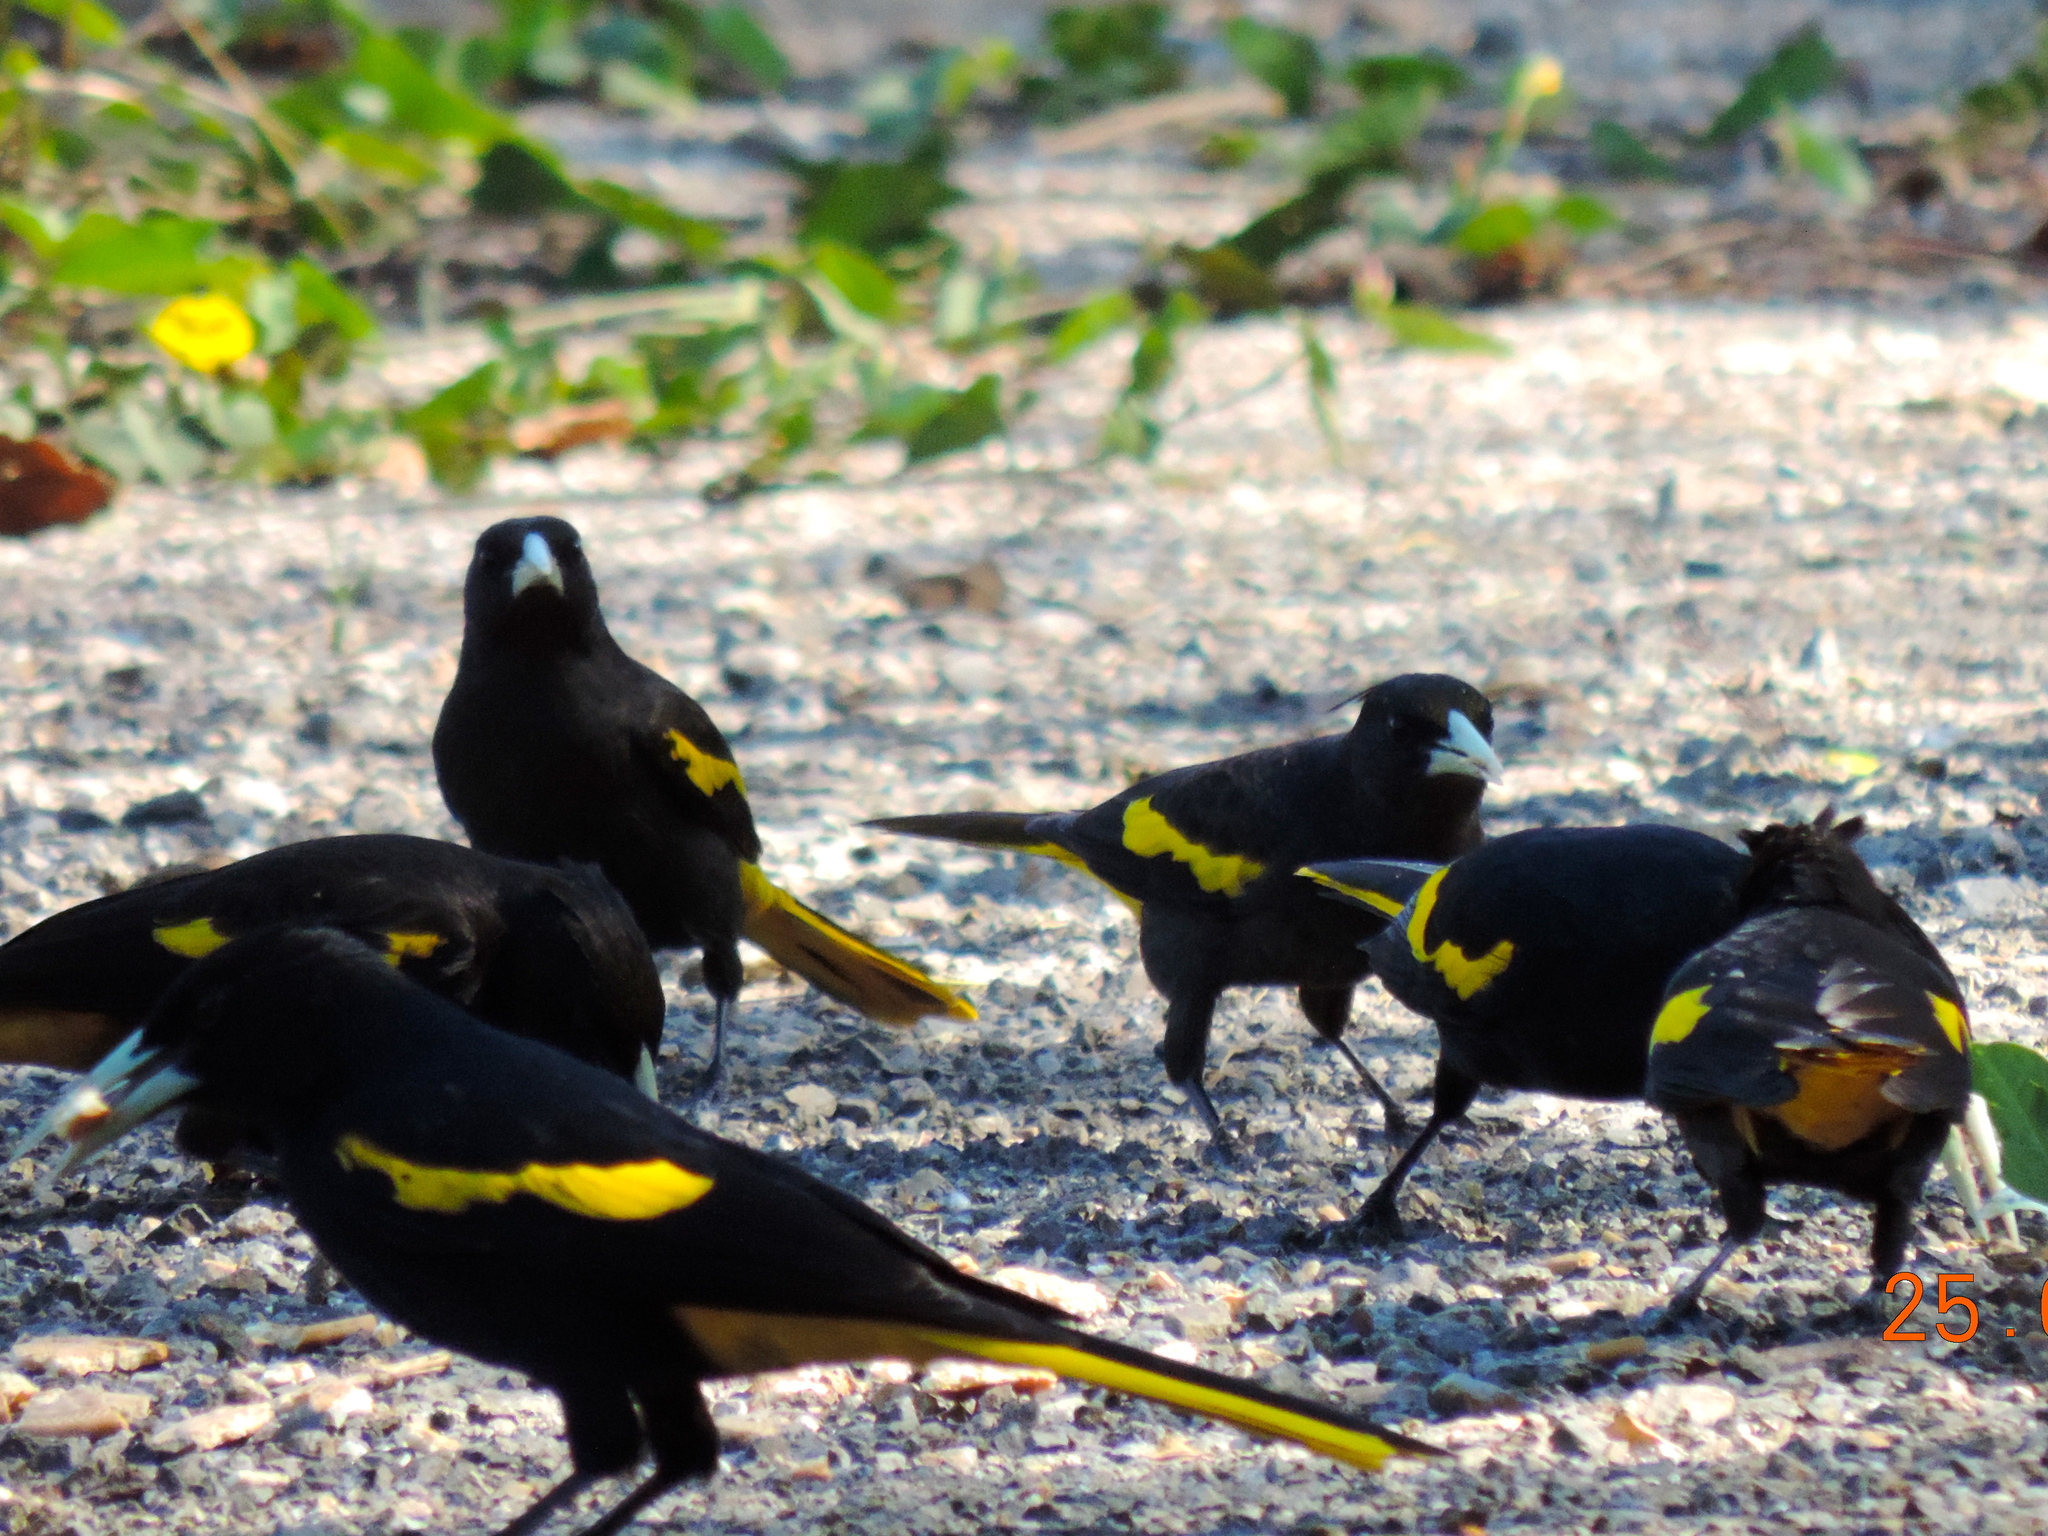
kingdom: Animalia
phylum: Chordata
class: Aves
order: Passeriformes
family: Icteridae
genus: Cacicus
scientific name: Cacicus melanicterus
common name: Yellow-winged cacique
